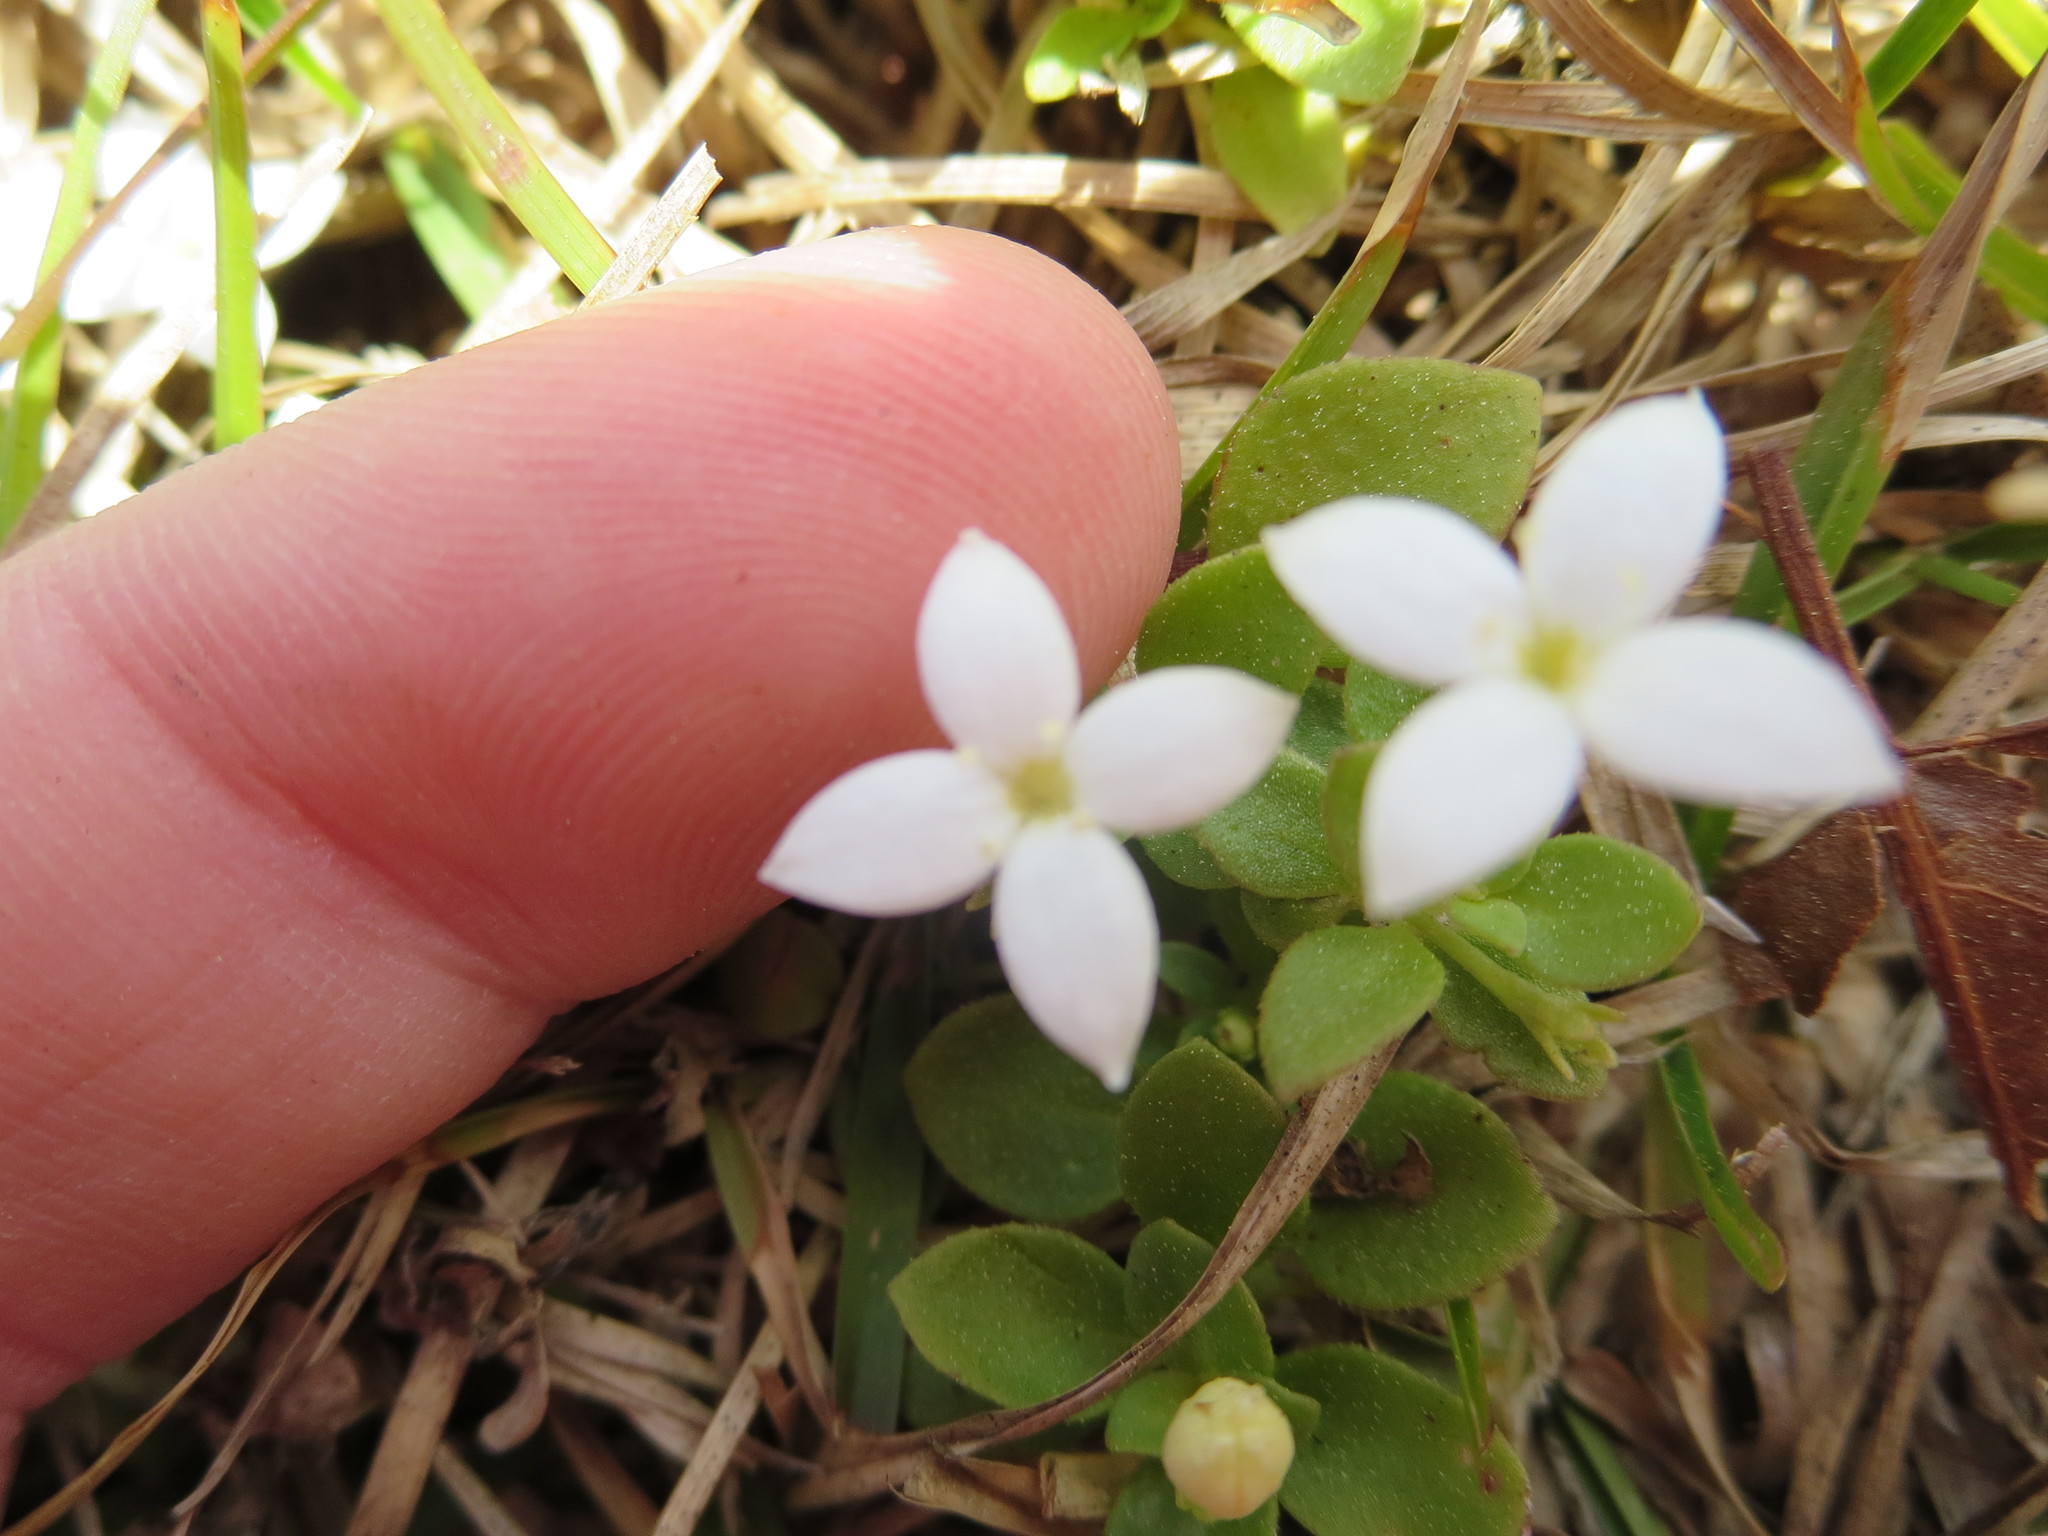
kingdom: Plantae
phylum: Tracheophyta
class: Magnoliopsida
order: Gentianales
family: Rubiaceae
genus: Houstonia
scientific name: Houstonia procumbens
